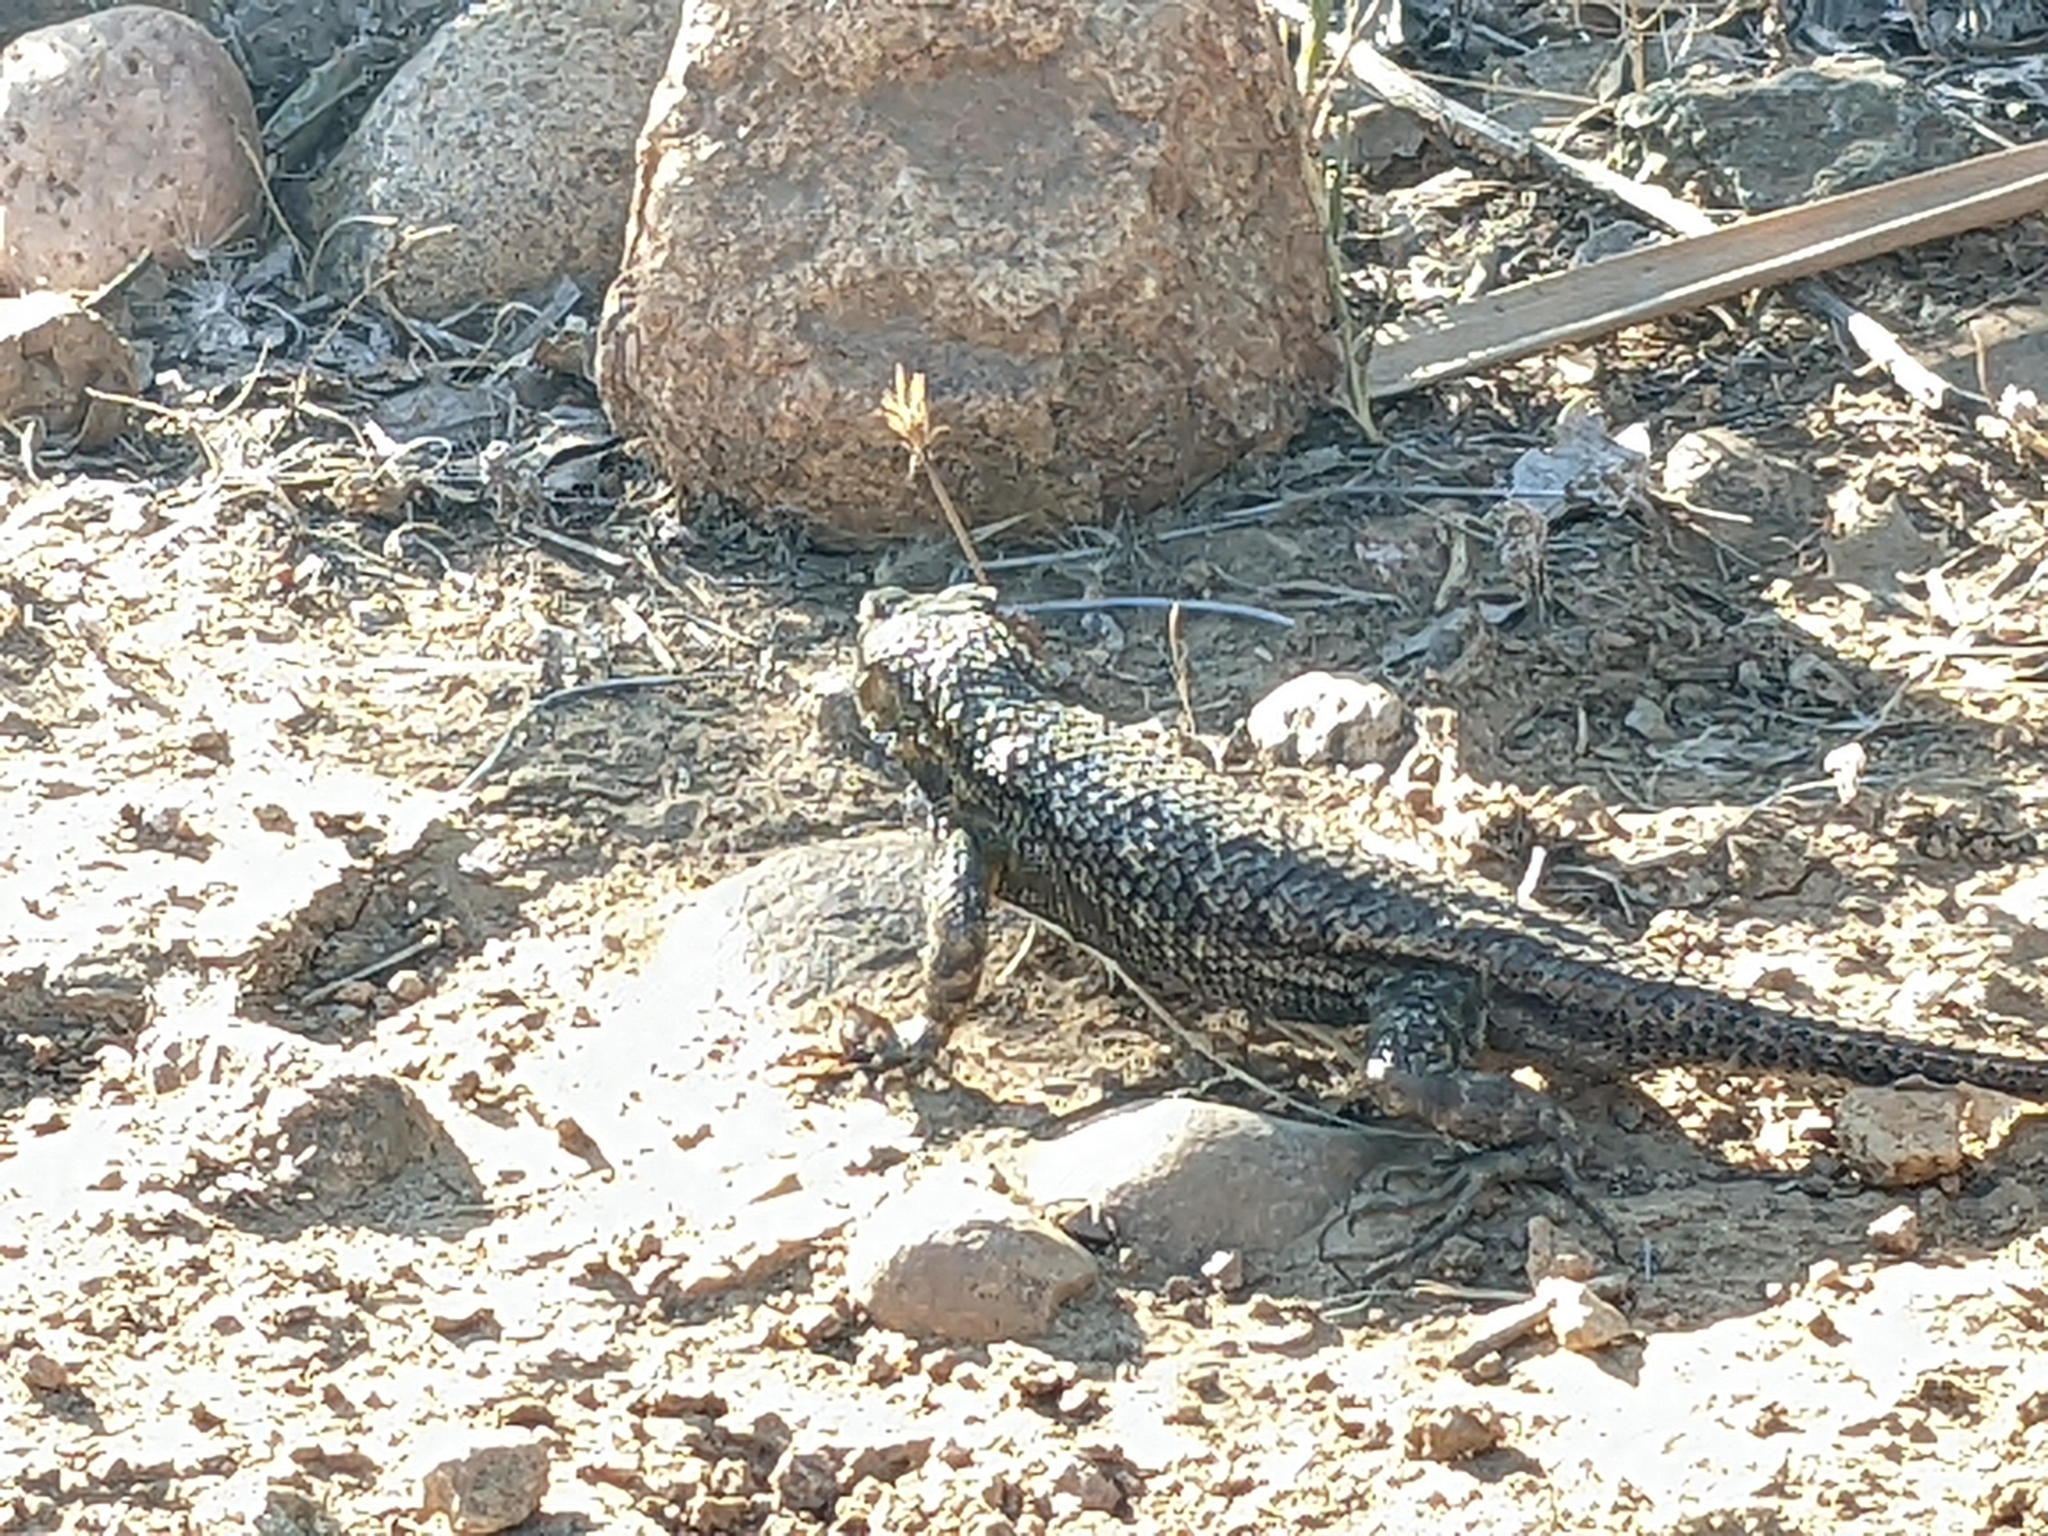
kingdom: Animalia
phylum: Chordata
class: Squamata
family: Phrynosomatidae
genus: Sceloporus
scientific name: Sceloporus occidentalis
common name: Western fence lizard
